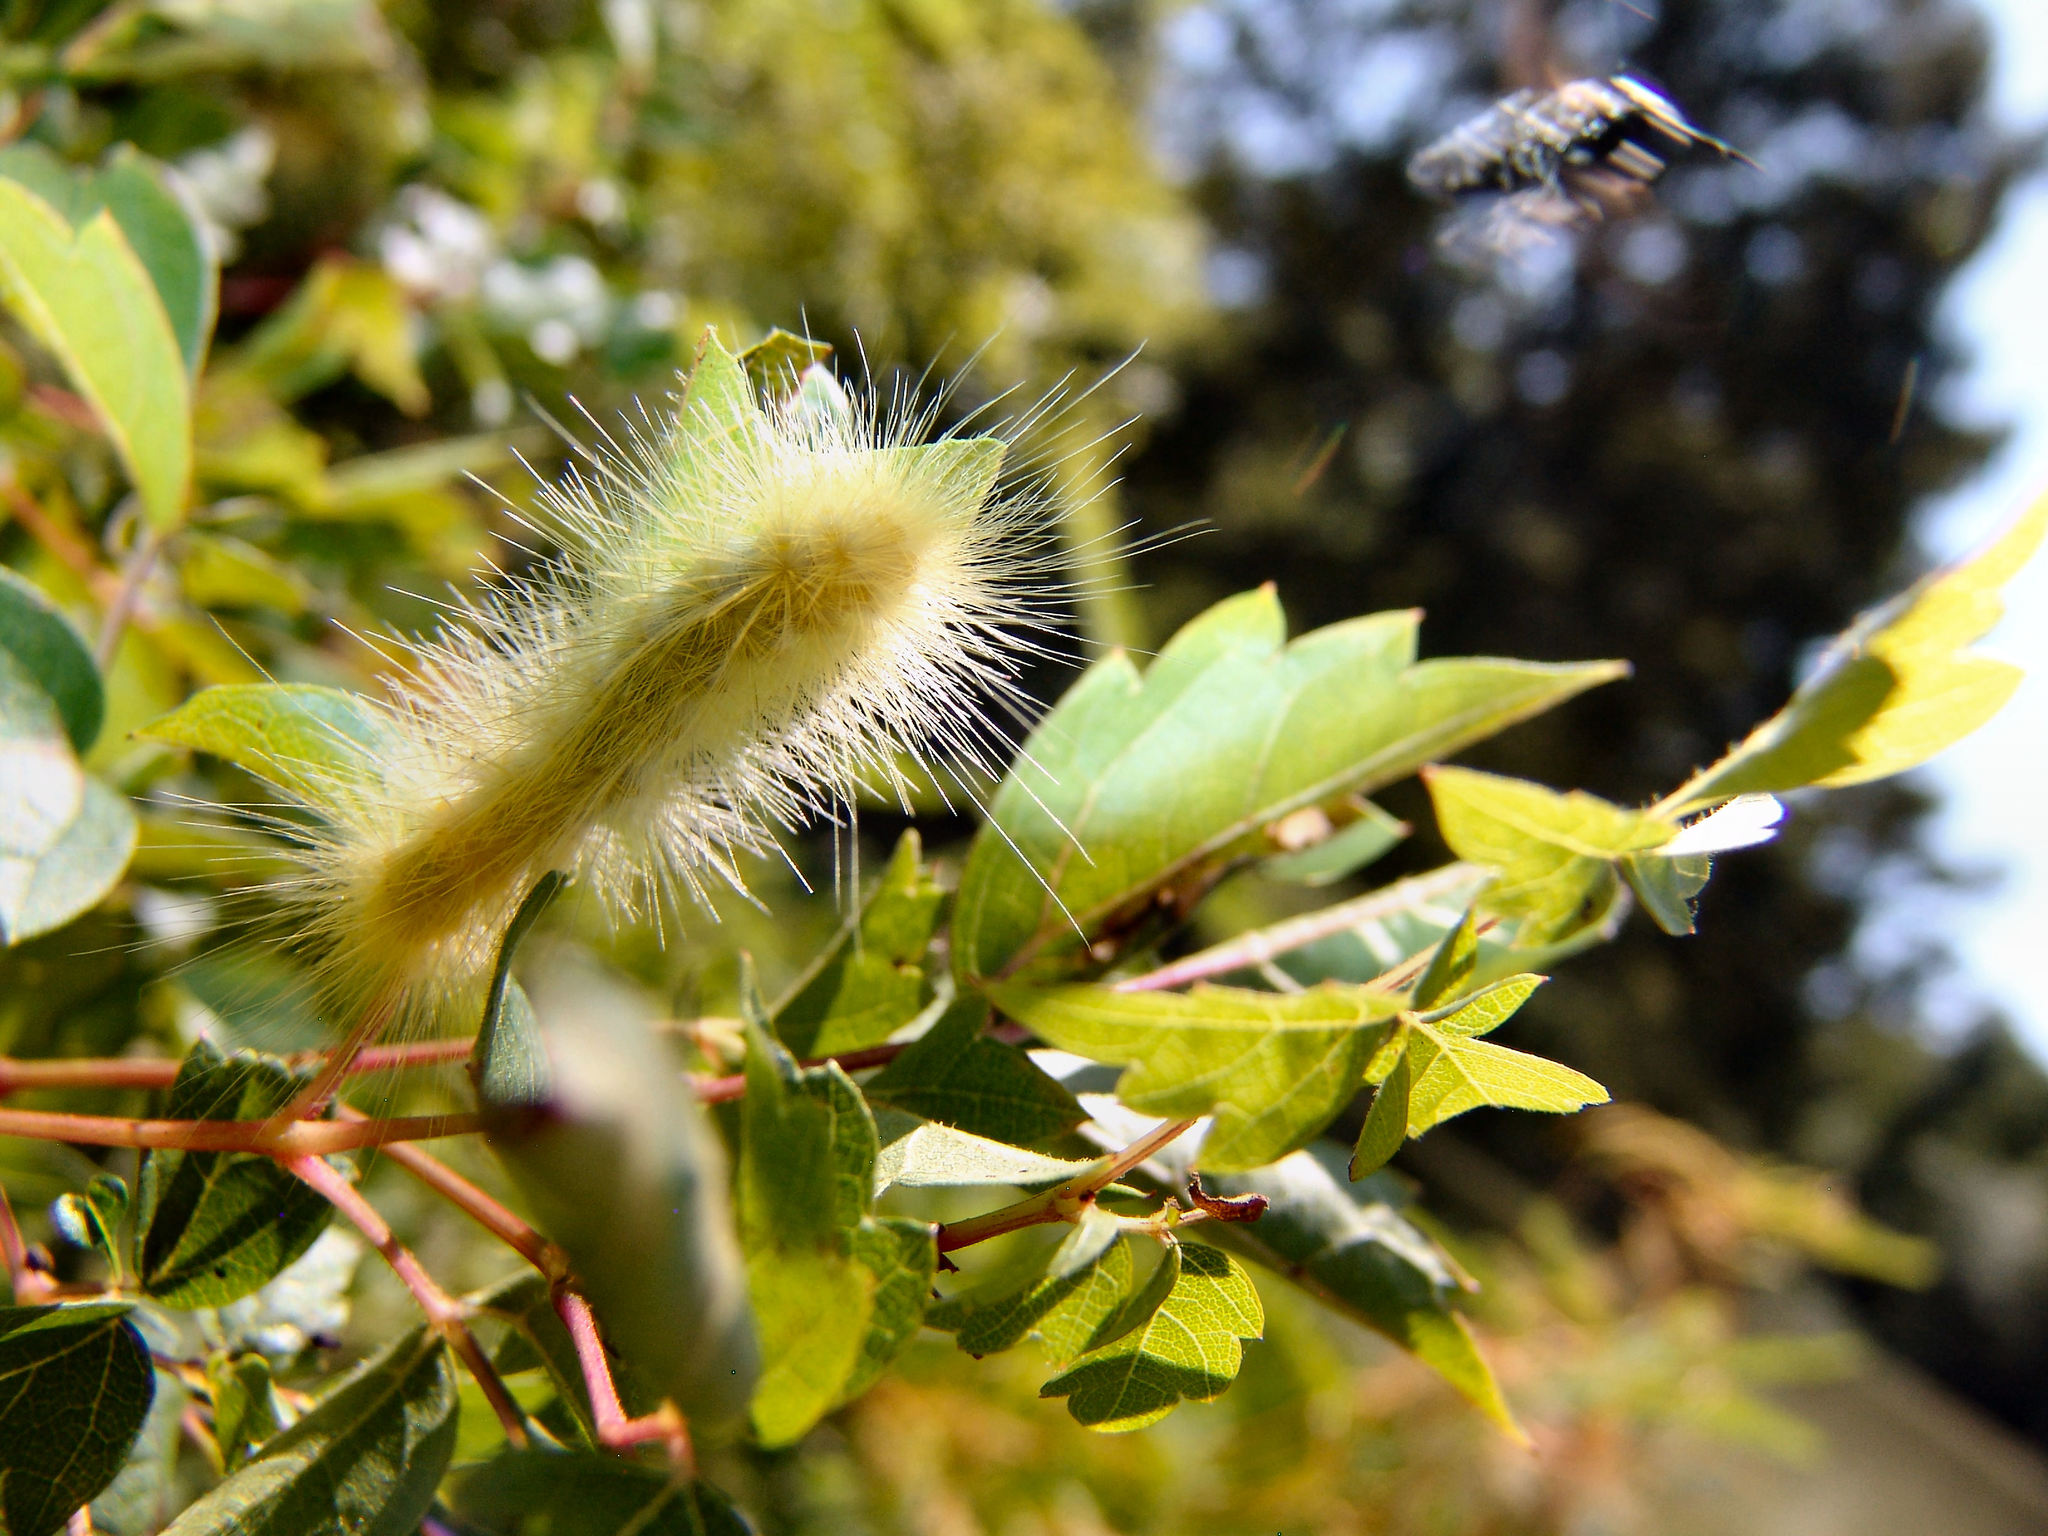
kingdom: Animalia
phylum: Arthropoda
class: Insecta
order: Lepidoptera
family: Erebidae
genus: Spilosoma
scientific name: Spilosoma virginica
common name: Virginia tiger moth
